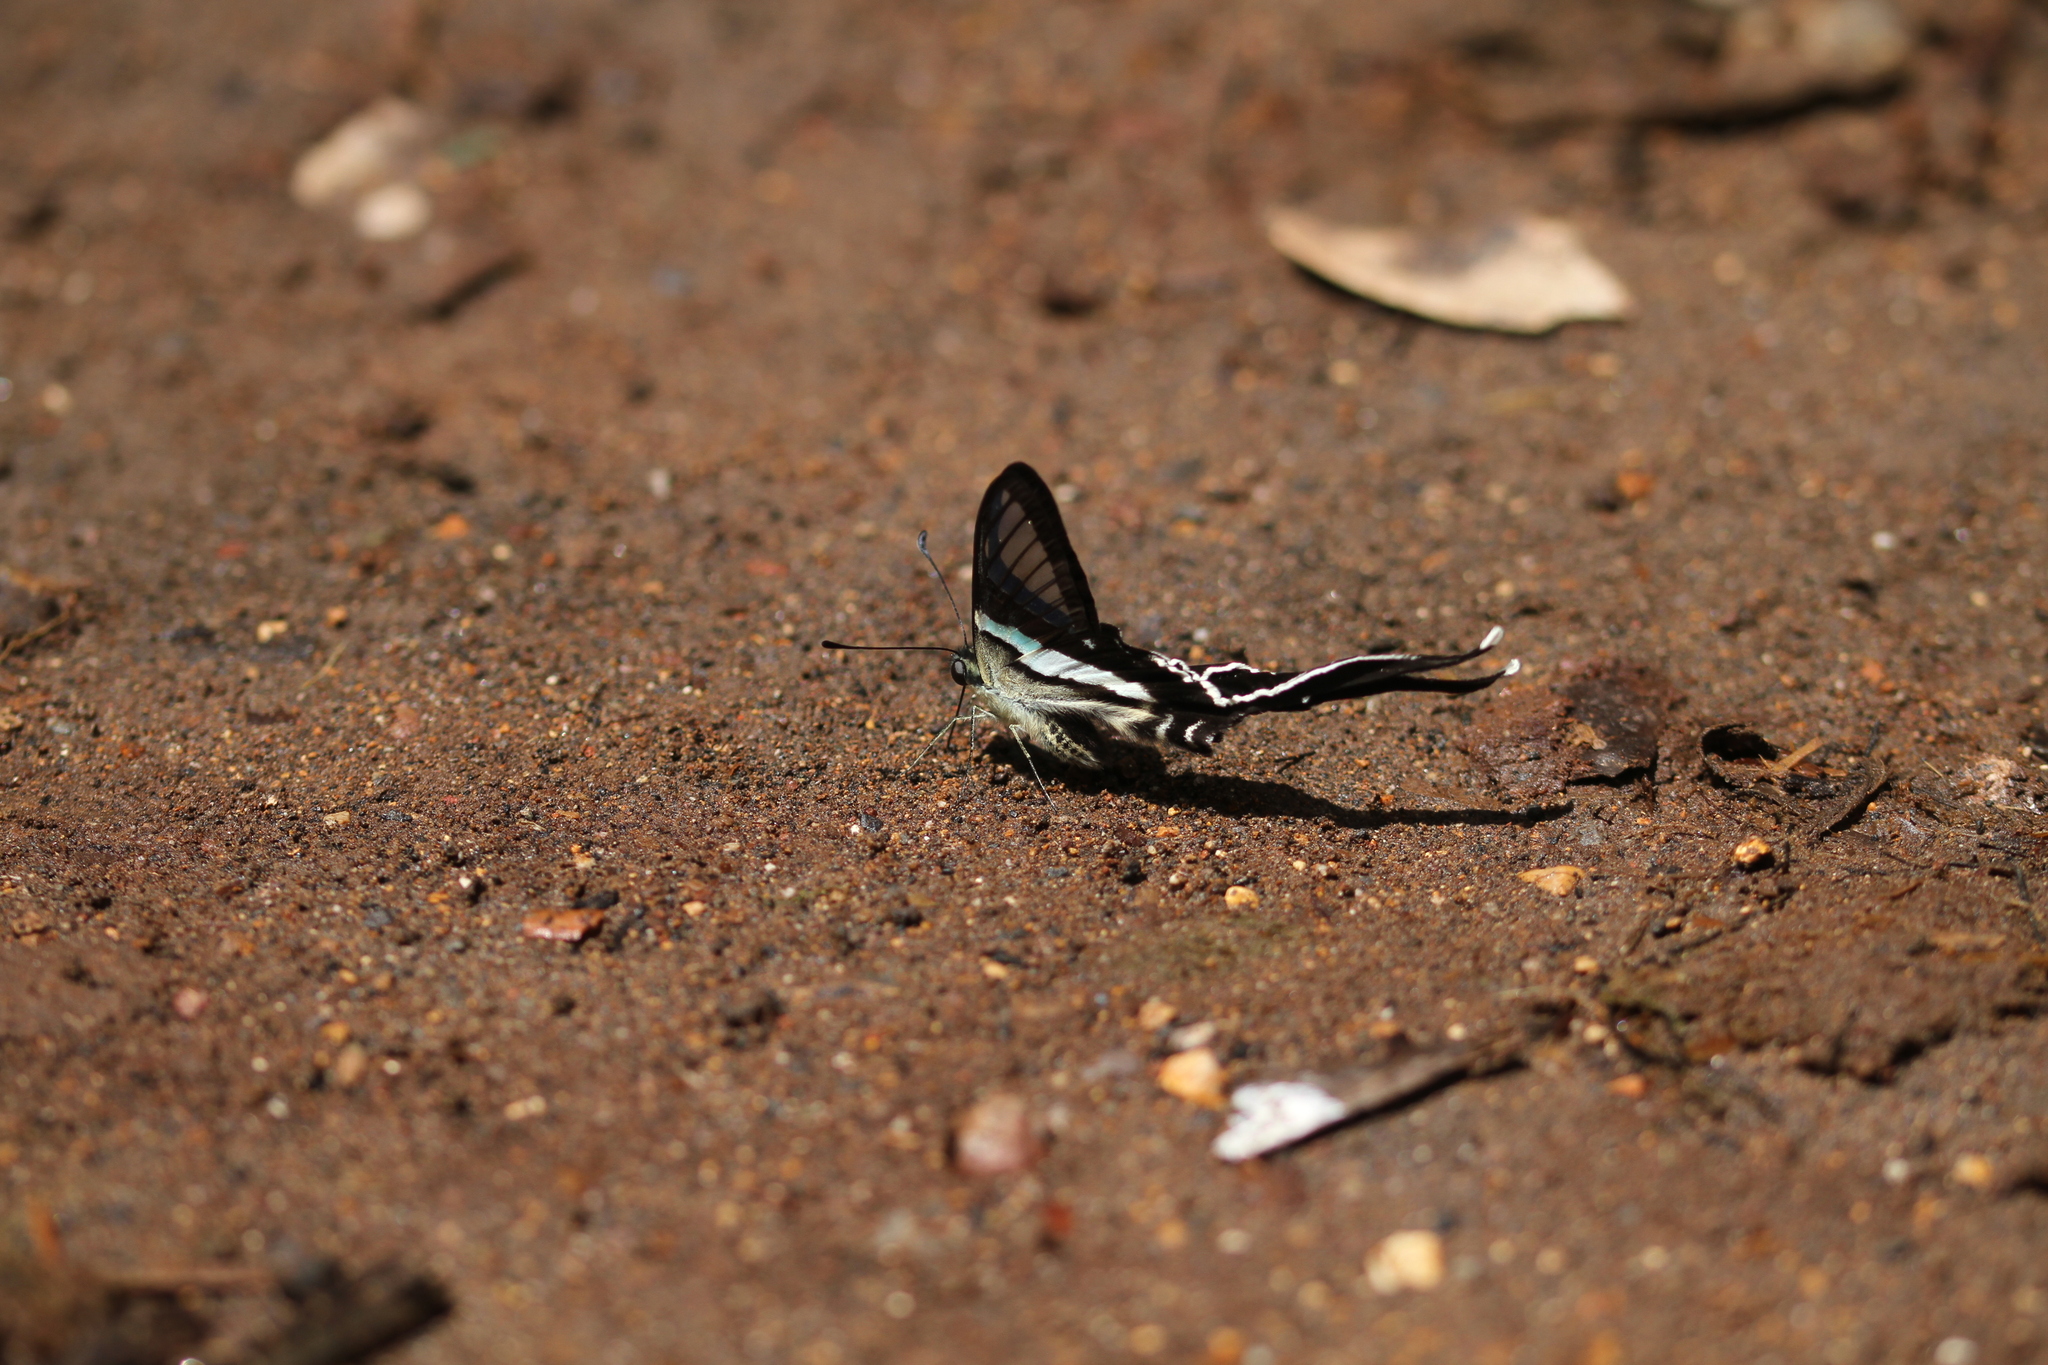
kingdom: Animalia
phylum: Arthropoda
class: Insecta
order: Lepidoptera
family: Papilionidae
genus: Lamproptera
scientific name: Lamproptera meges
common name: Green dragontail
